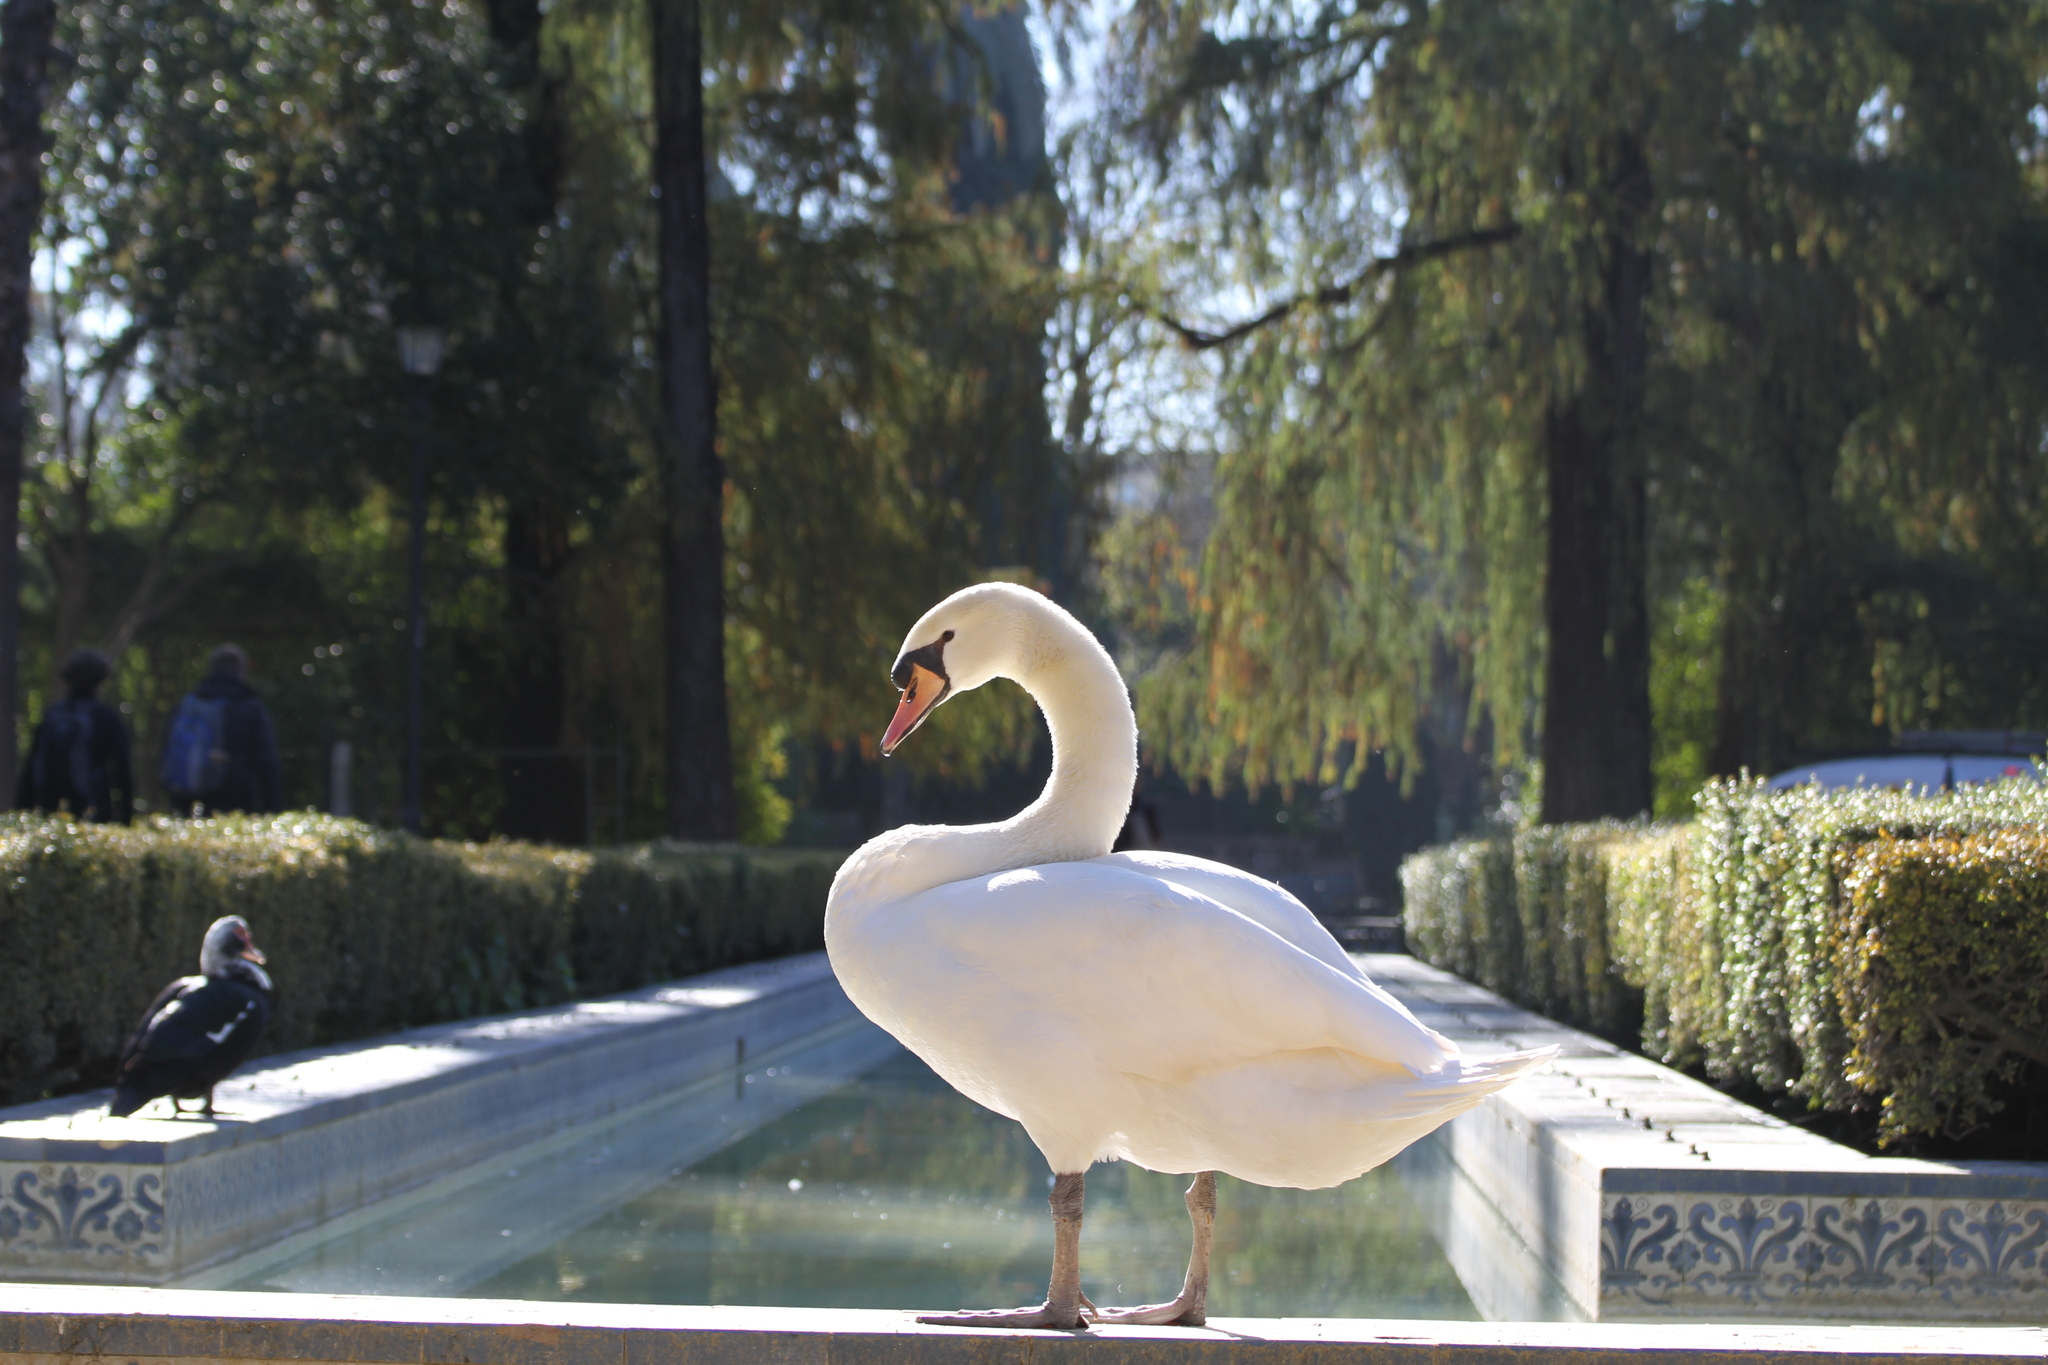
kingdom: Animalia
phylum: Chordata
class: Aves
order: Anseriformes
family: Anatidae
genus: Cygnus
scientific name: Cygnus olor
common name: Mute swan
